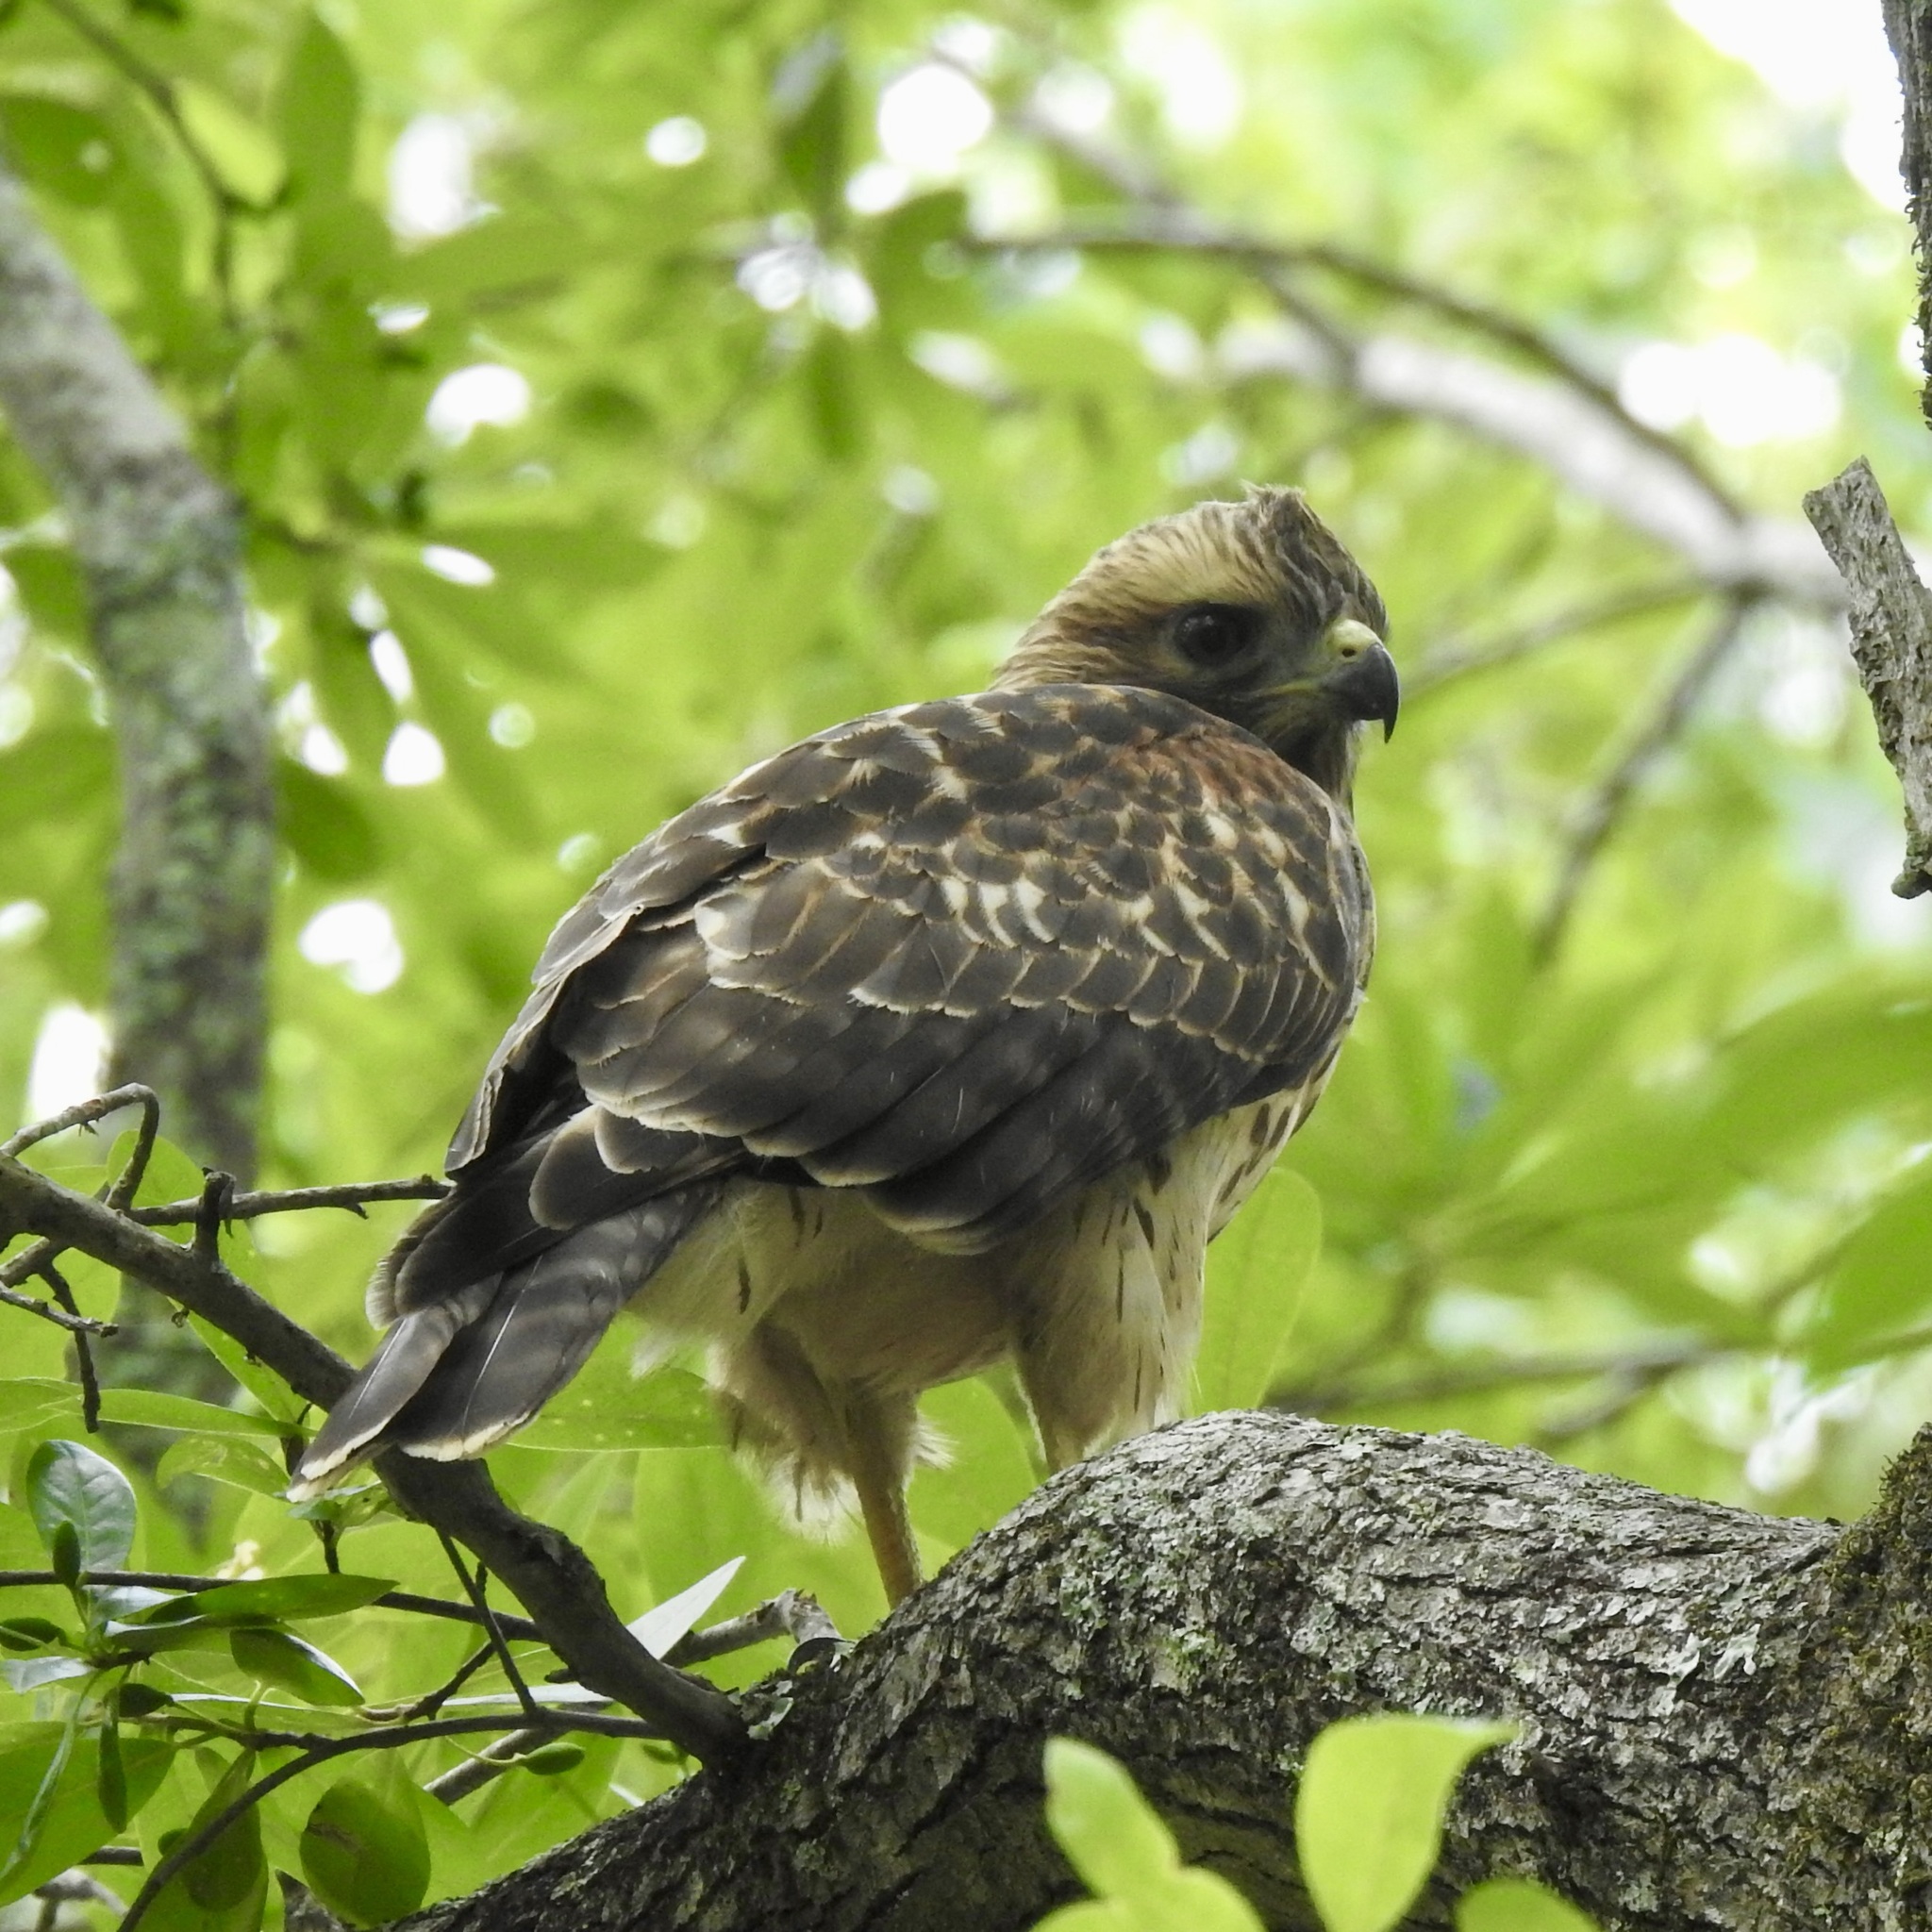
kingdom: Animalia
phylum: Chordata
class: Aves
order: Accipitriformes
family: Accipitridae
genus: Buteo
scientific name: Buteo lineatus
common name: Red-shouldered hawk
